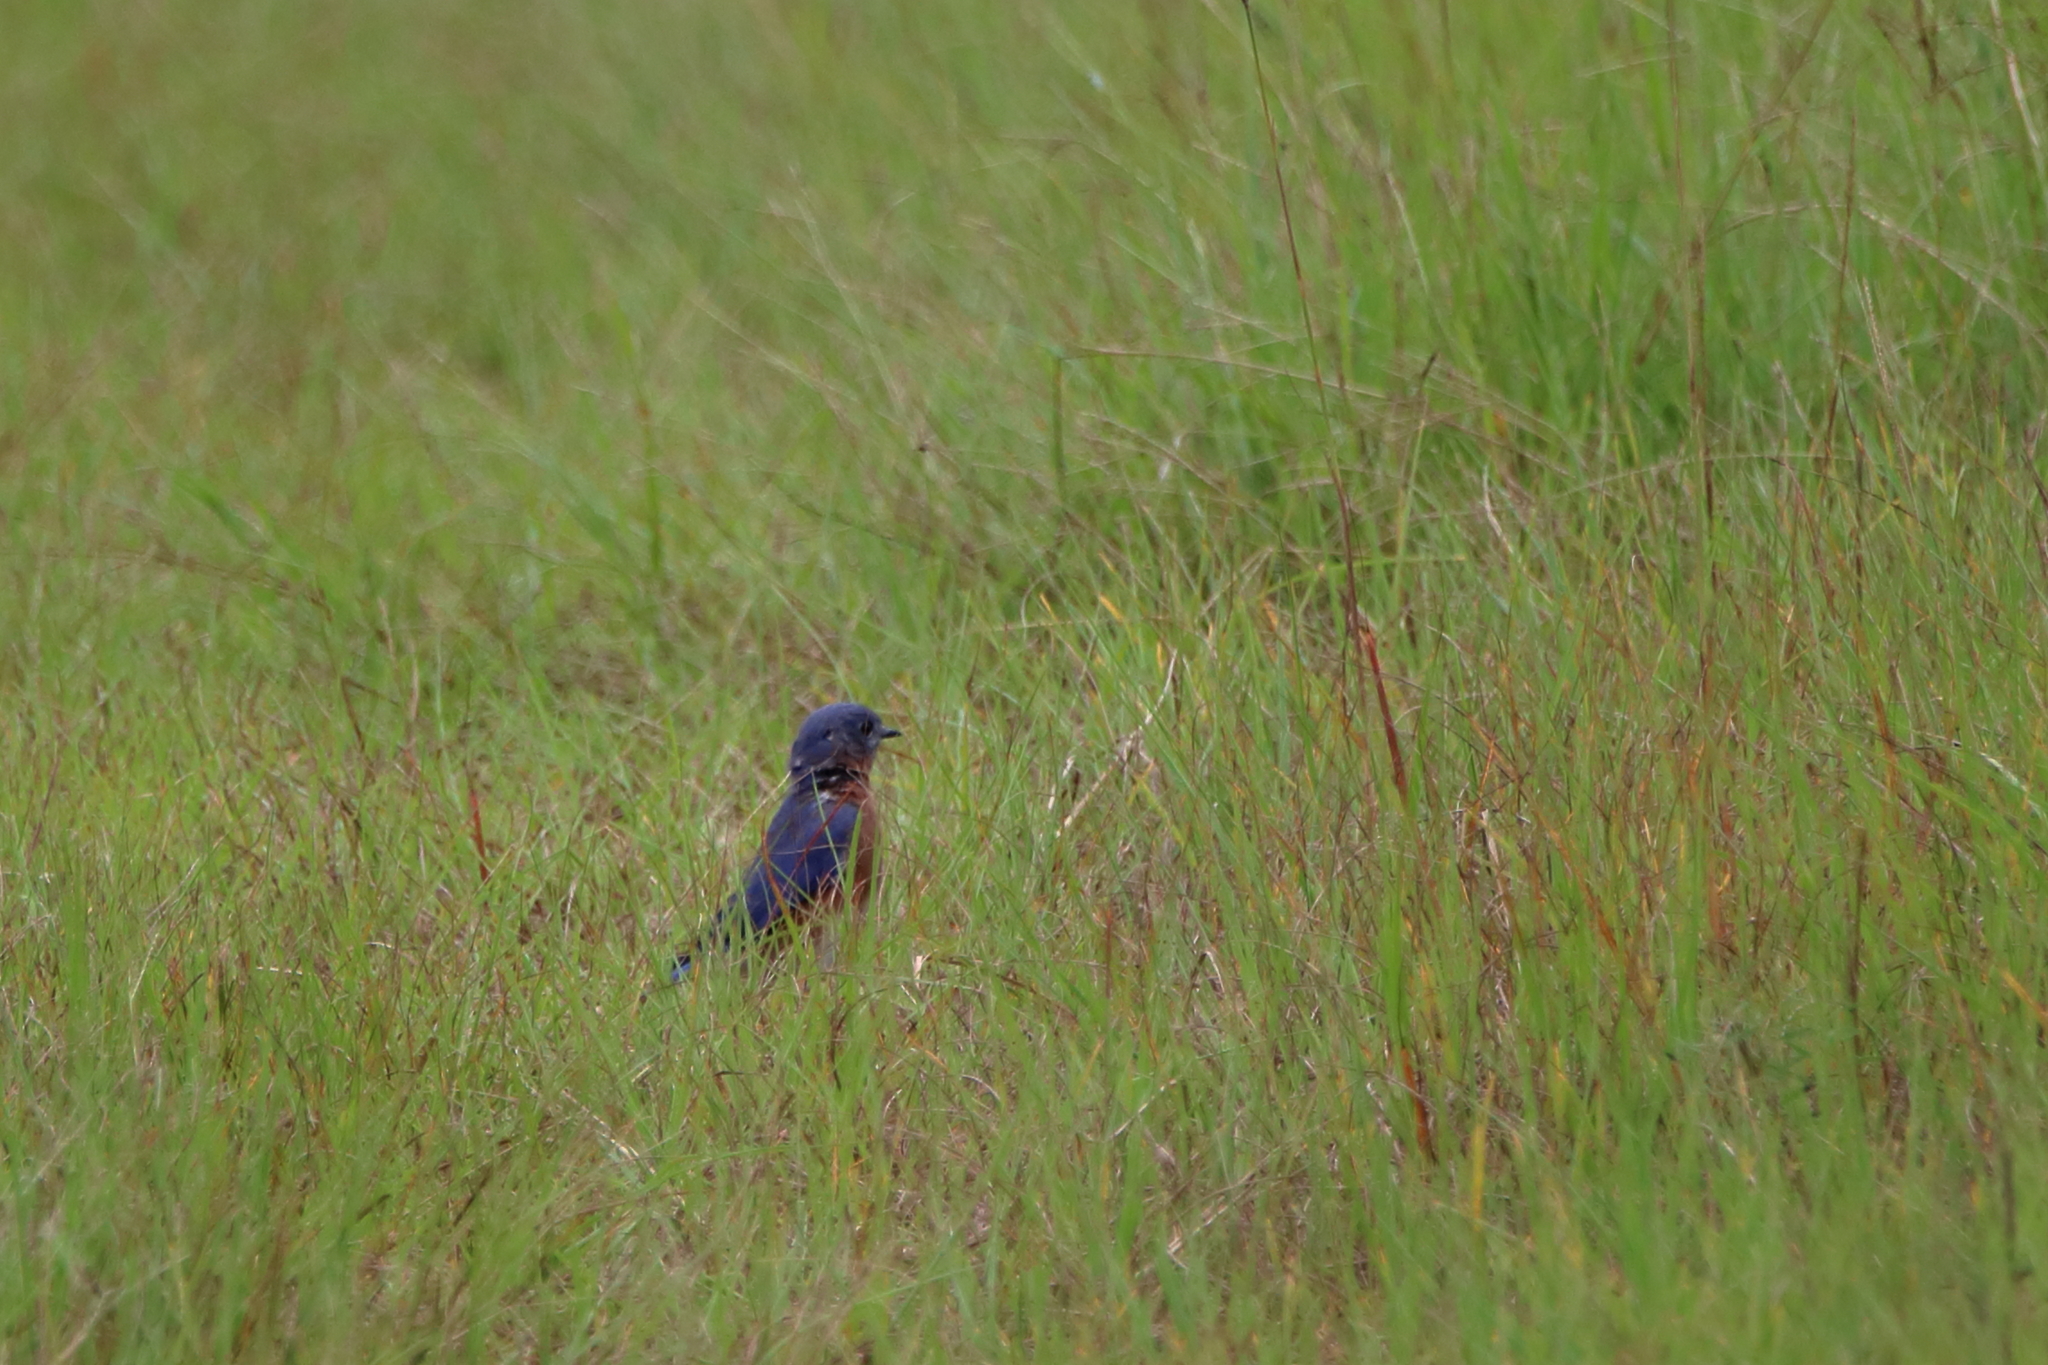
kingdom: Animalia
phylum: Chordata
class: Aves
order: Passeriformes
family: Turdidae
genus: Sialia
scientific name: Sialia sialis
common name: Eastern bluebird
